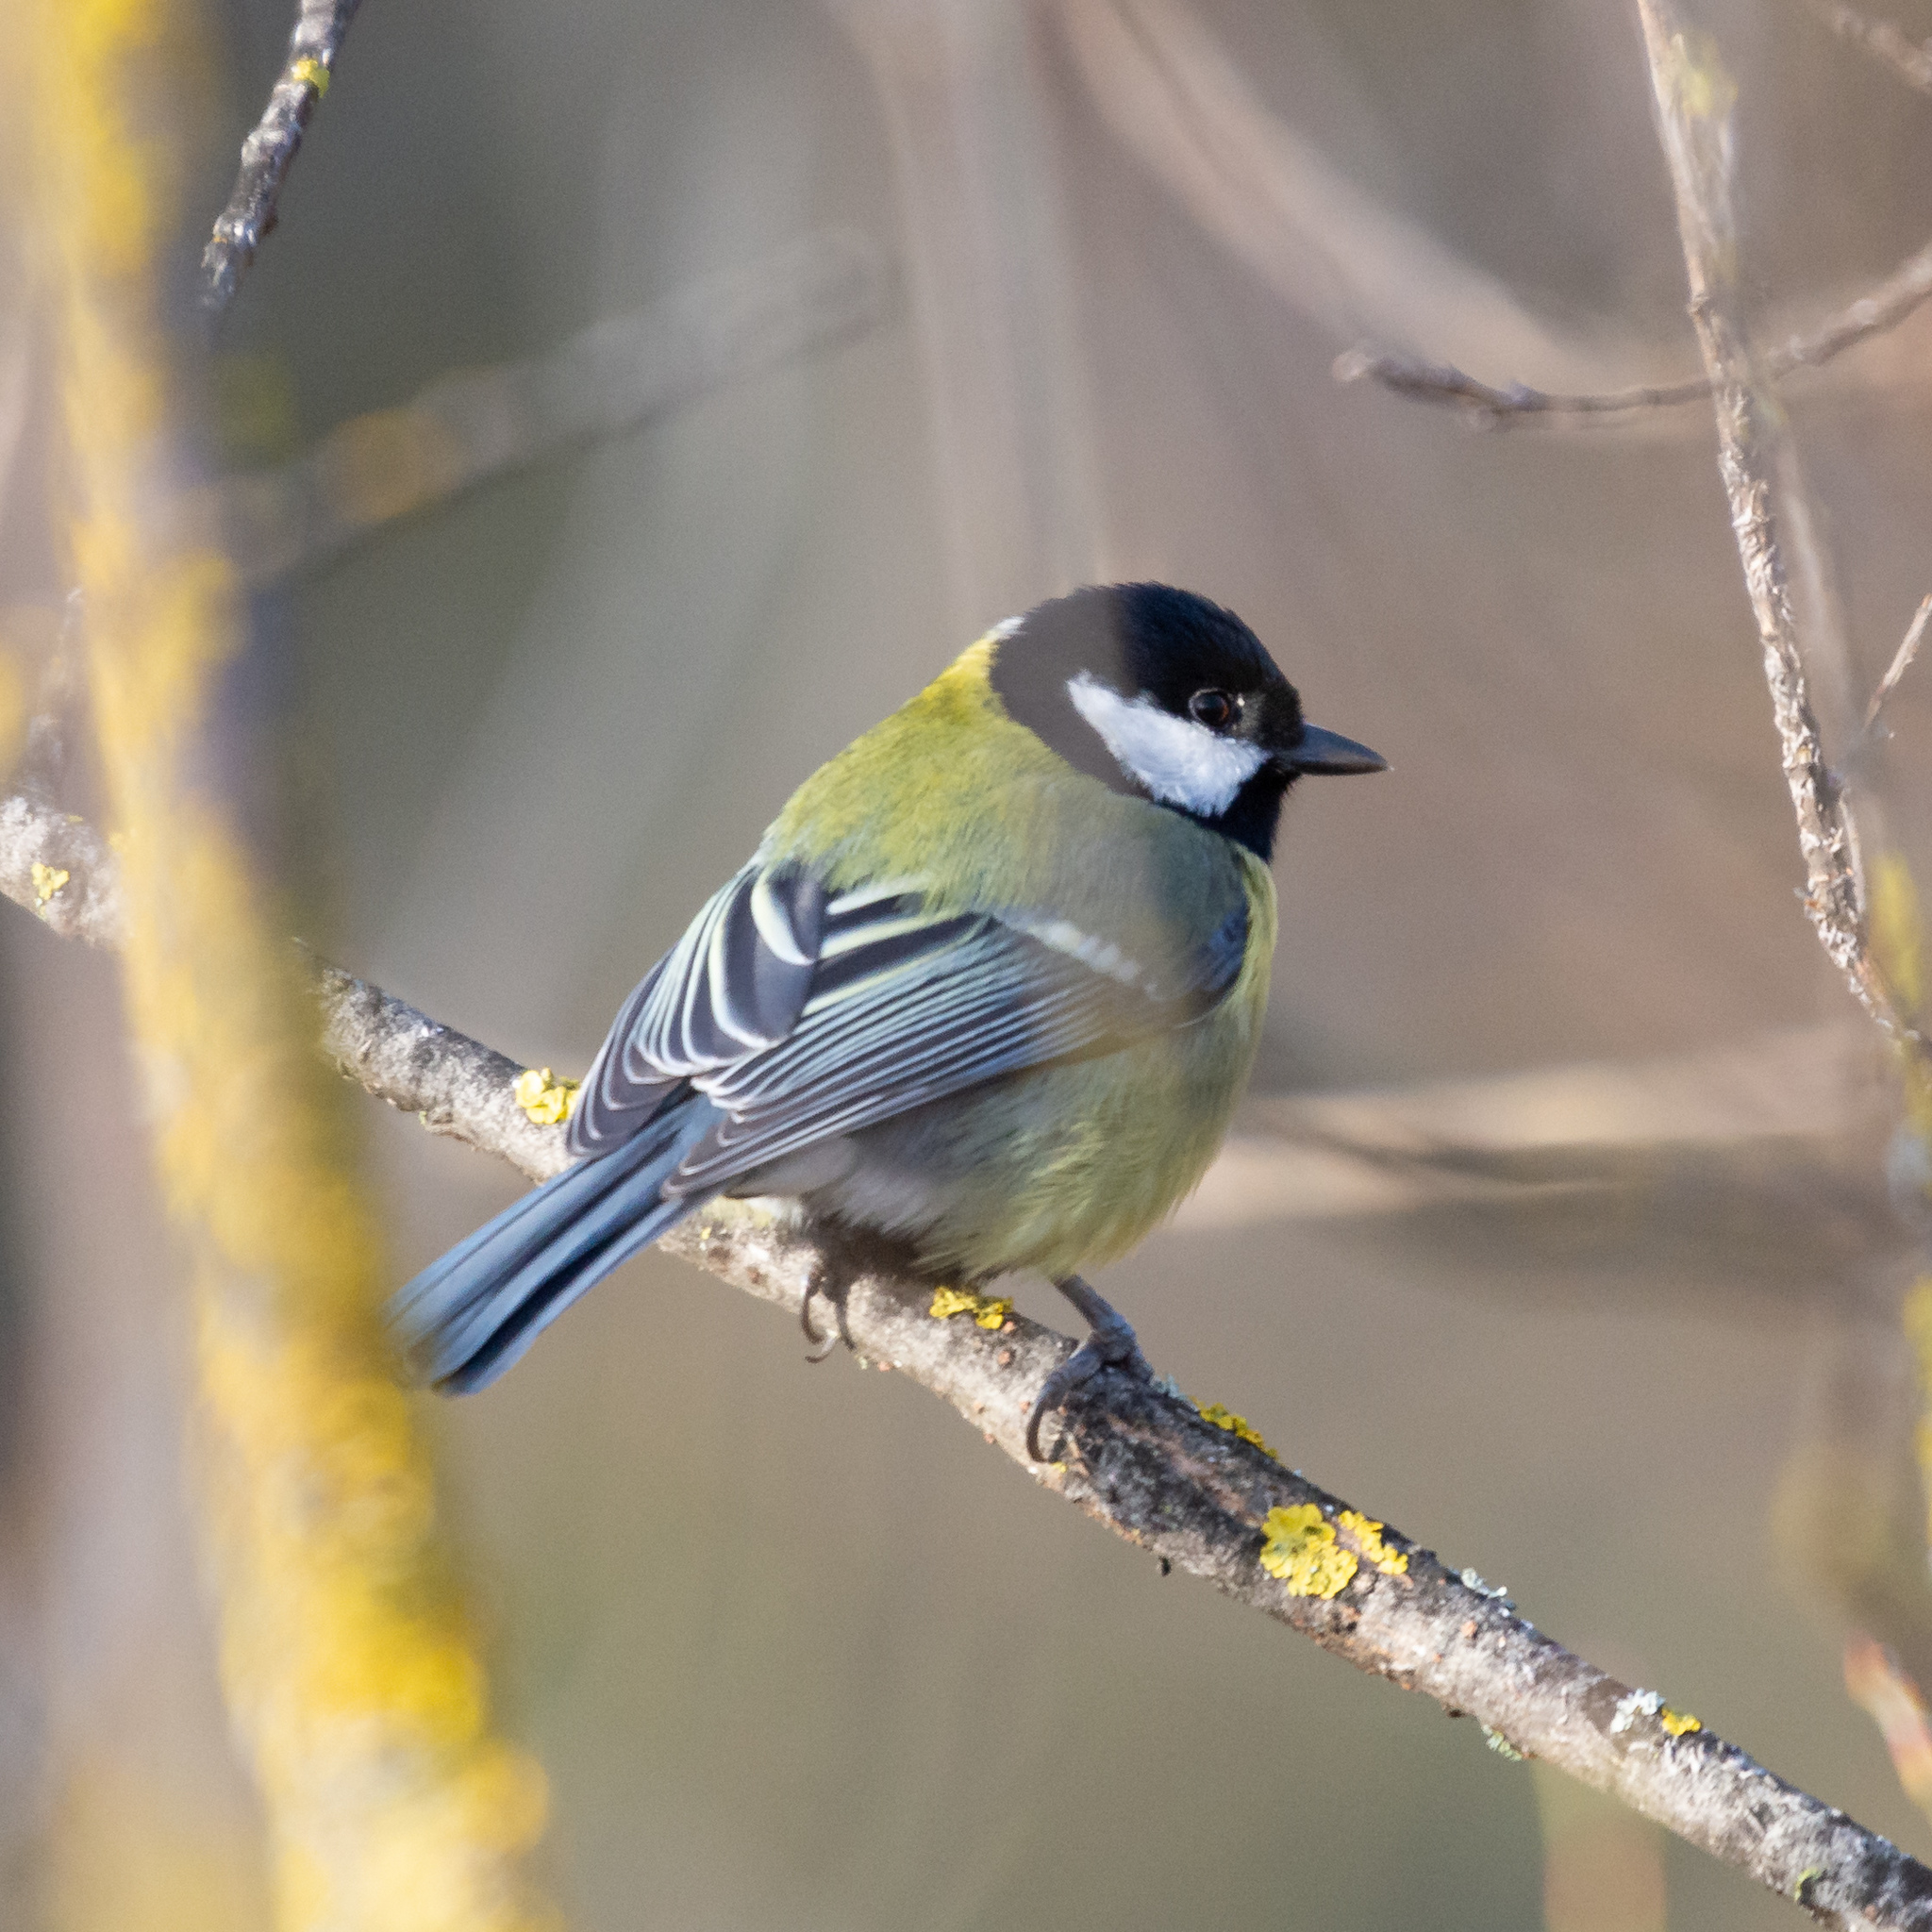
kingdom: Animalia
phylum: Chordata
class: Aves
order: Passeriformes
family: Paridae
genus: Parus
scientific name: Parus major
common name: Great tit
